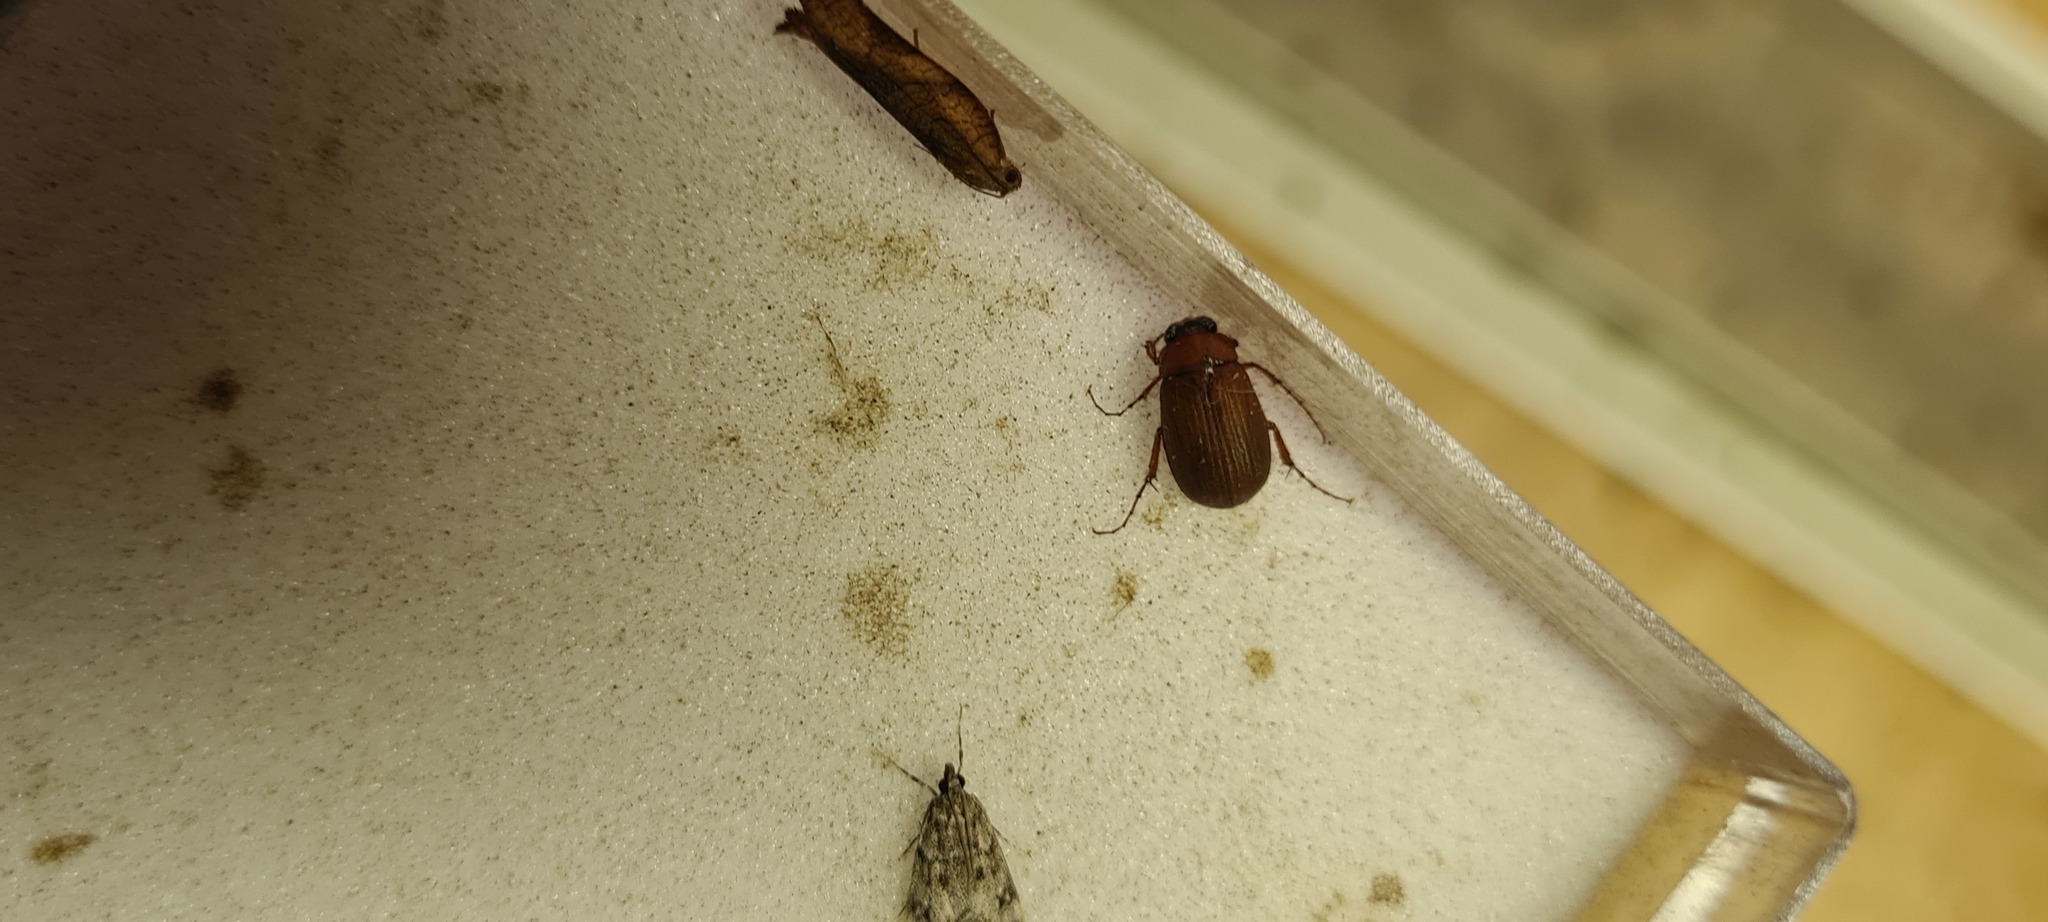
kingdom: Animalia
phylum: Arthropoda
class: Insecta
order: Coleoptera
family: Scarabaeidae
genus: Serica
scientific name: Serica brunnea
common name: Brown chafer
